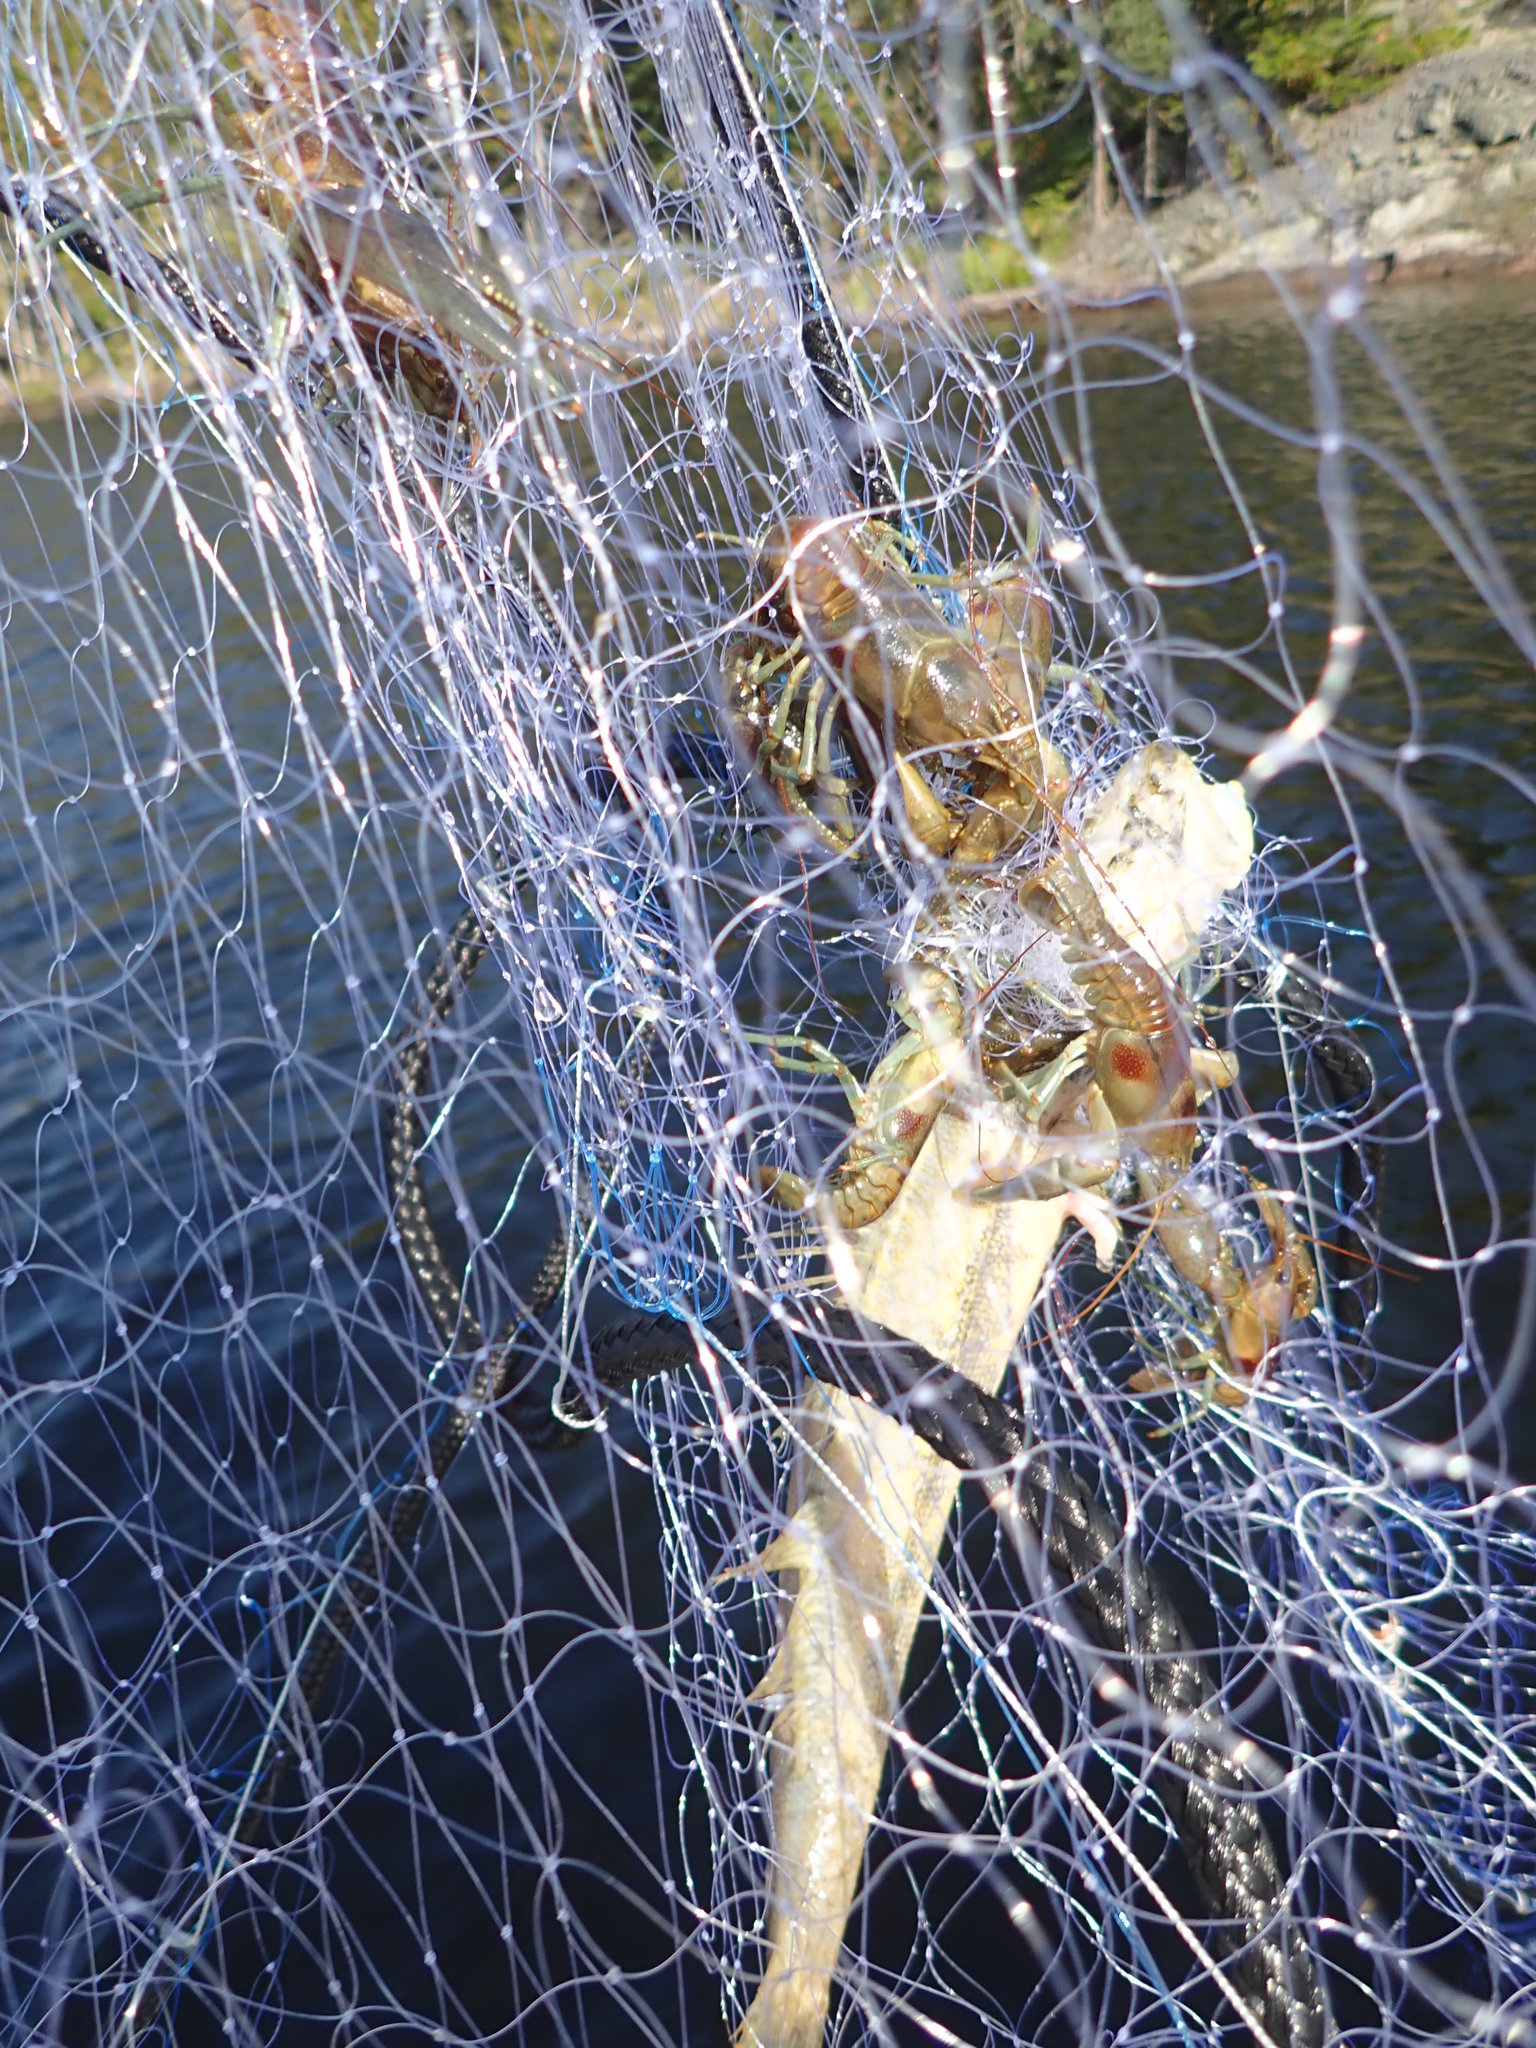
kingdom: Animalia
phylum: Arthropoda
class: Malacostraca
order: Decapoda
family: Cambaridae
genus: Faxonius
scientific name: Faxonius rusticus
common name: Rusty crayfish
